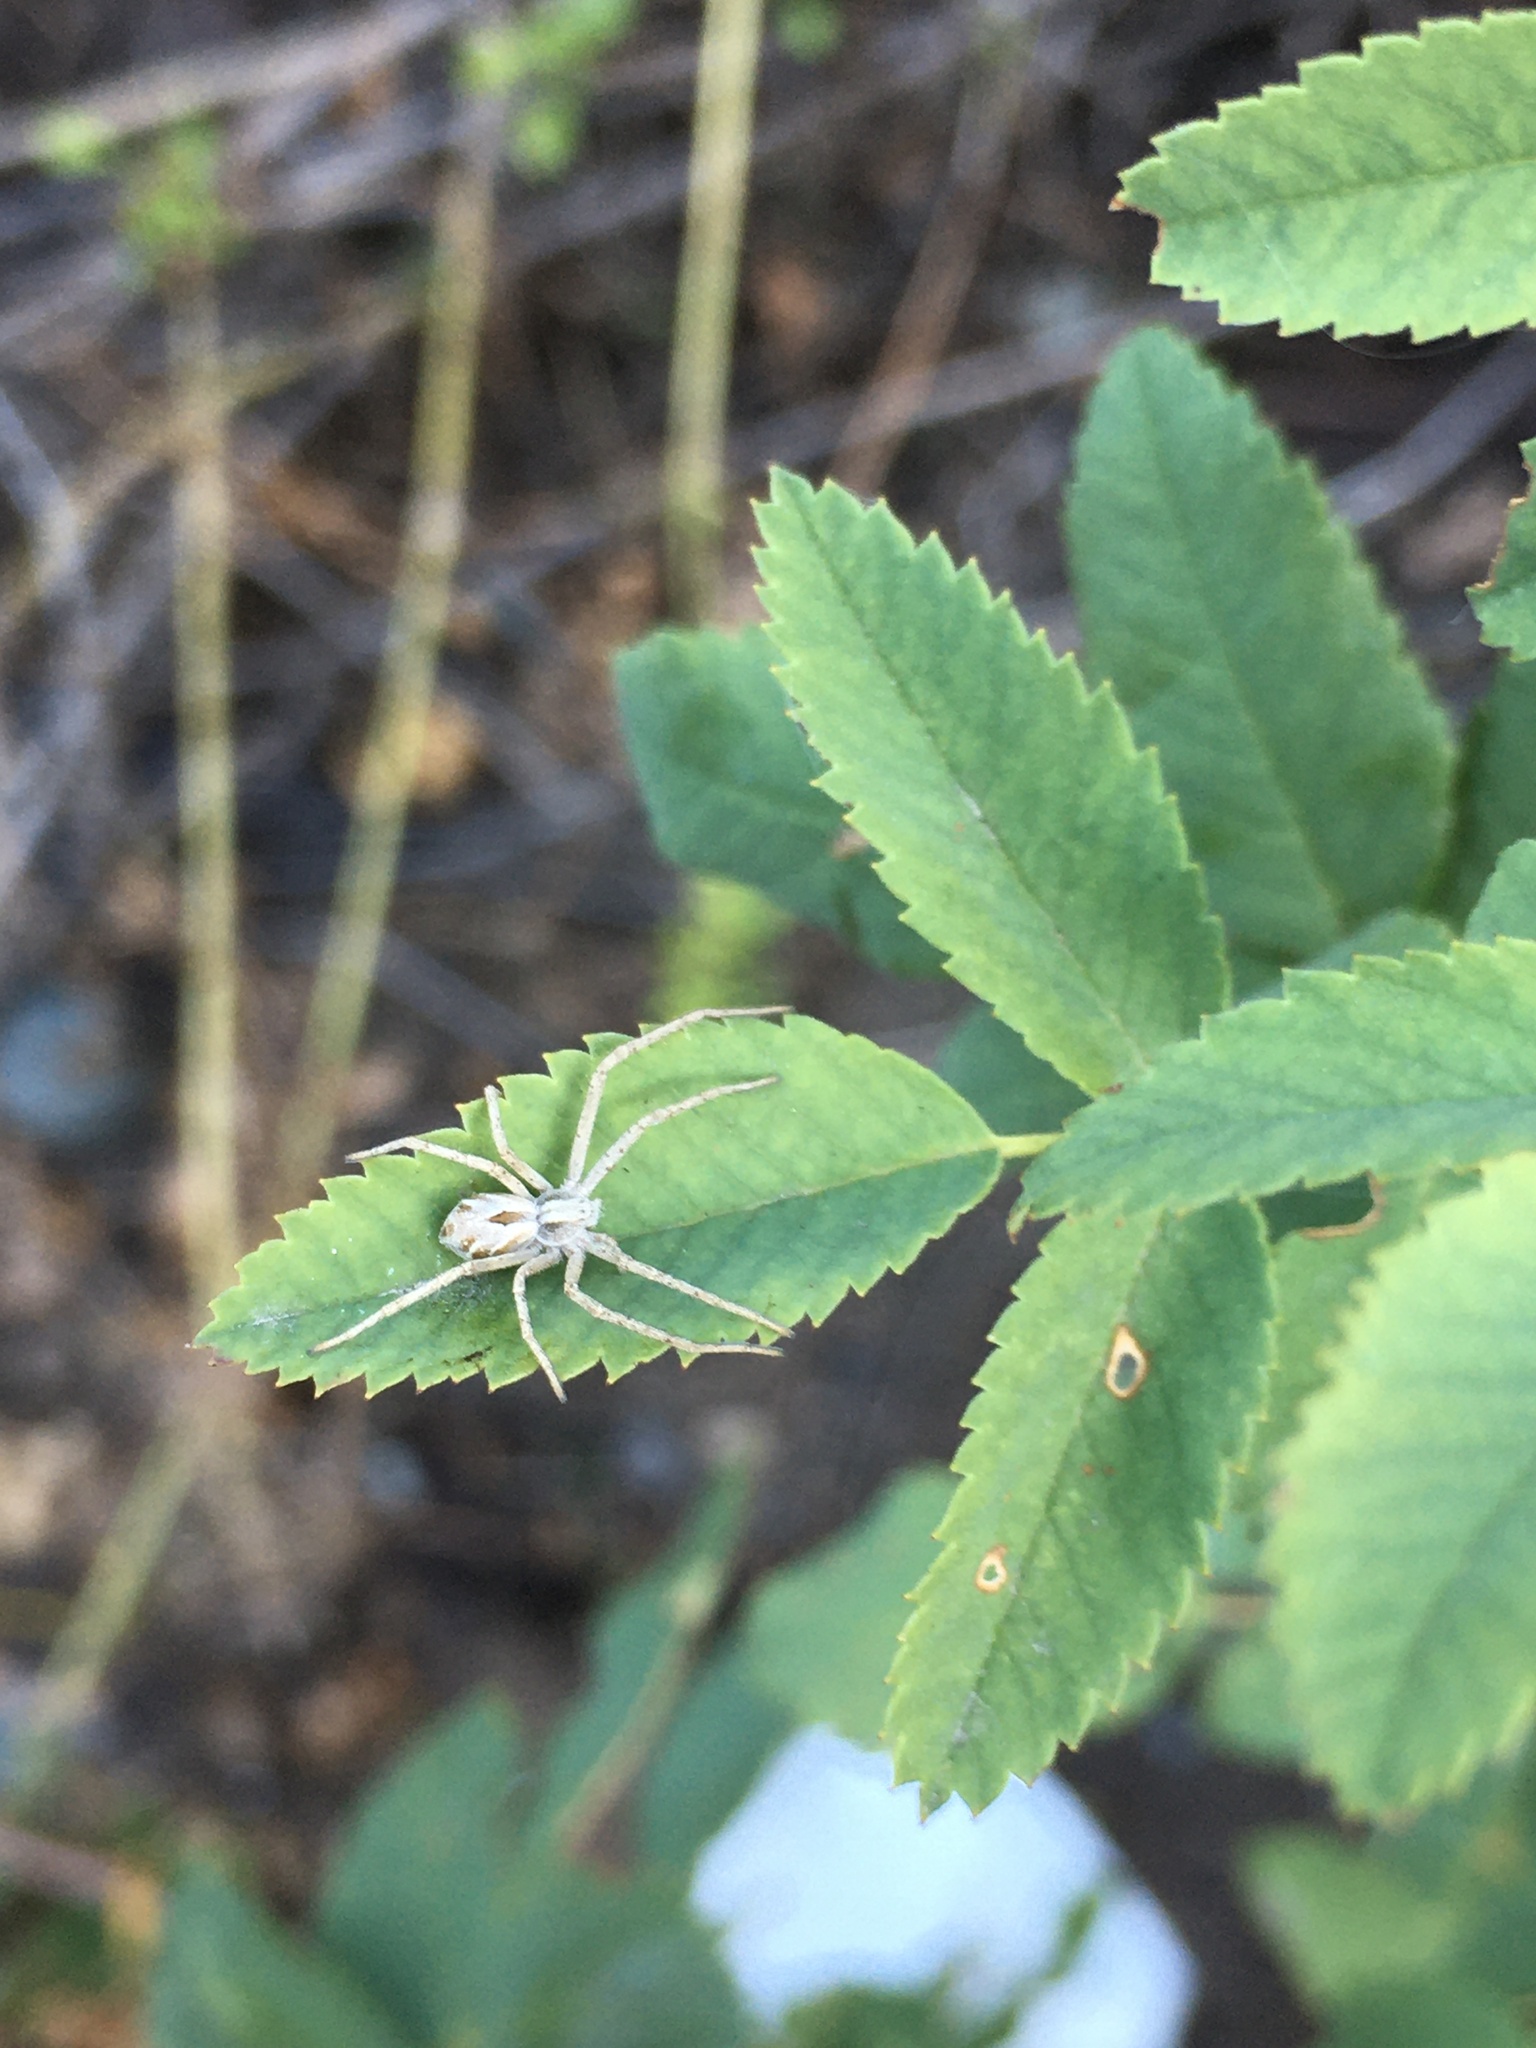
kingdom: Animalia
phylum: Arthropoda
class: Arachnida
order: Araneae
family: Philodromidae
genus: Rhysodromus
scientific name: Rhysodromus histrio
